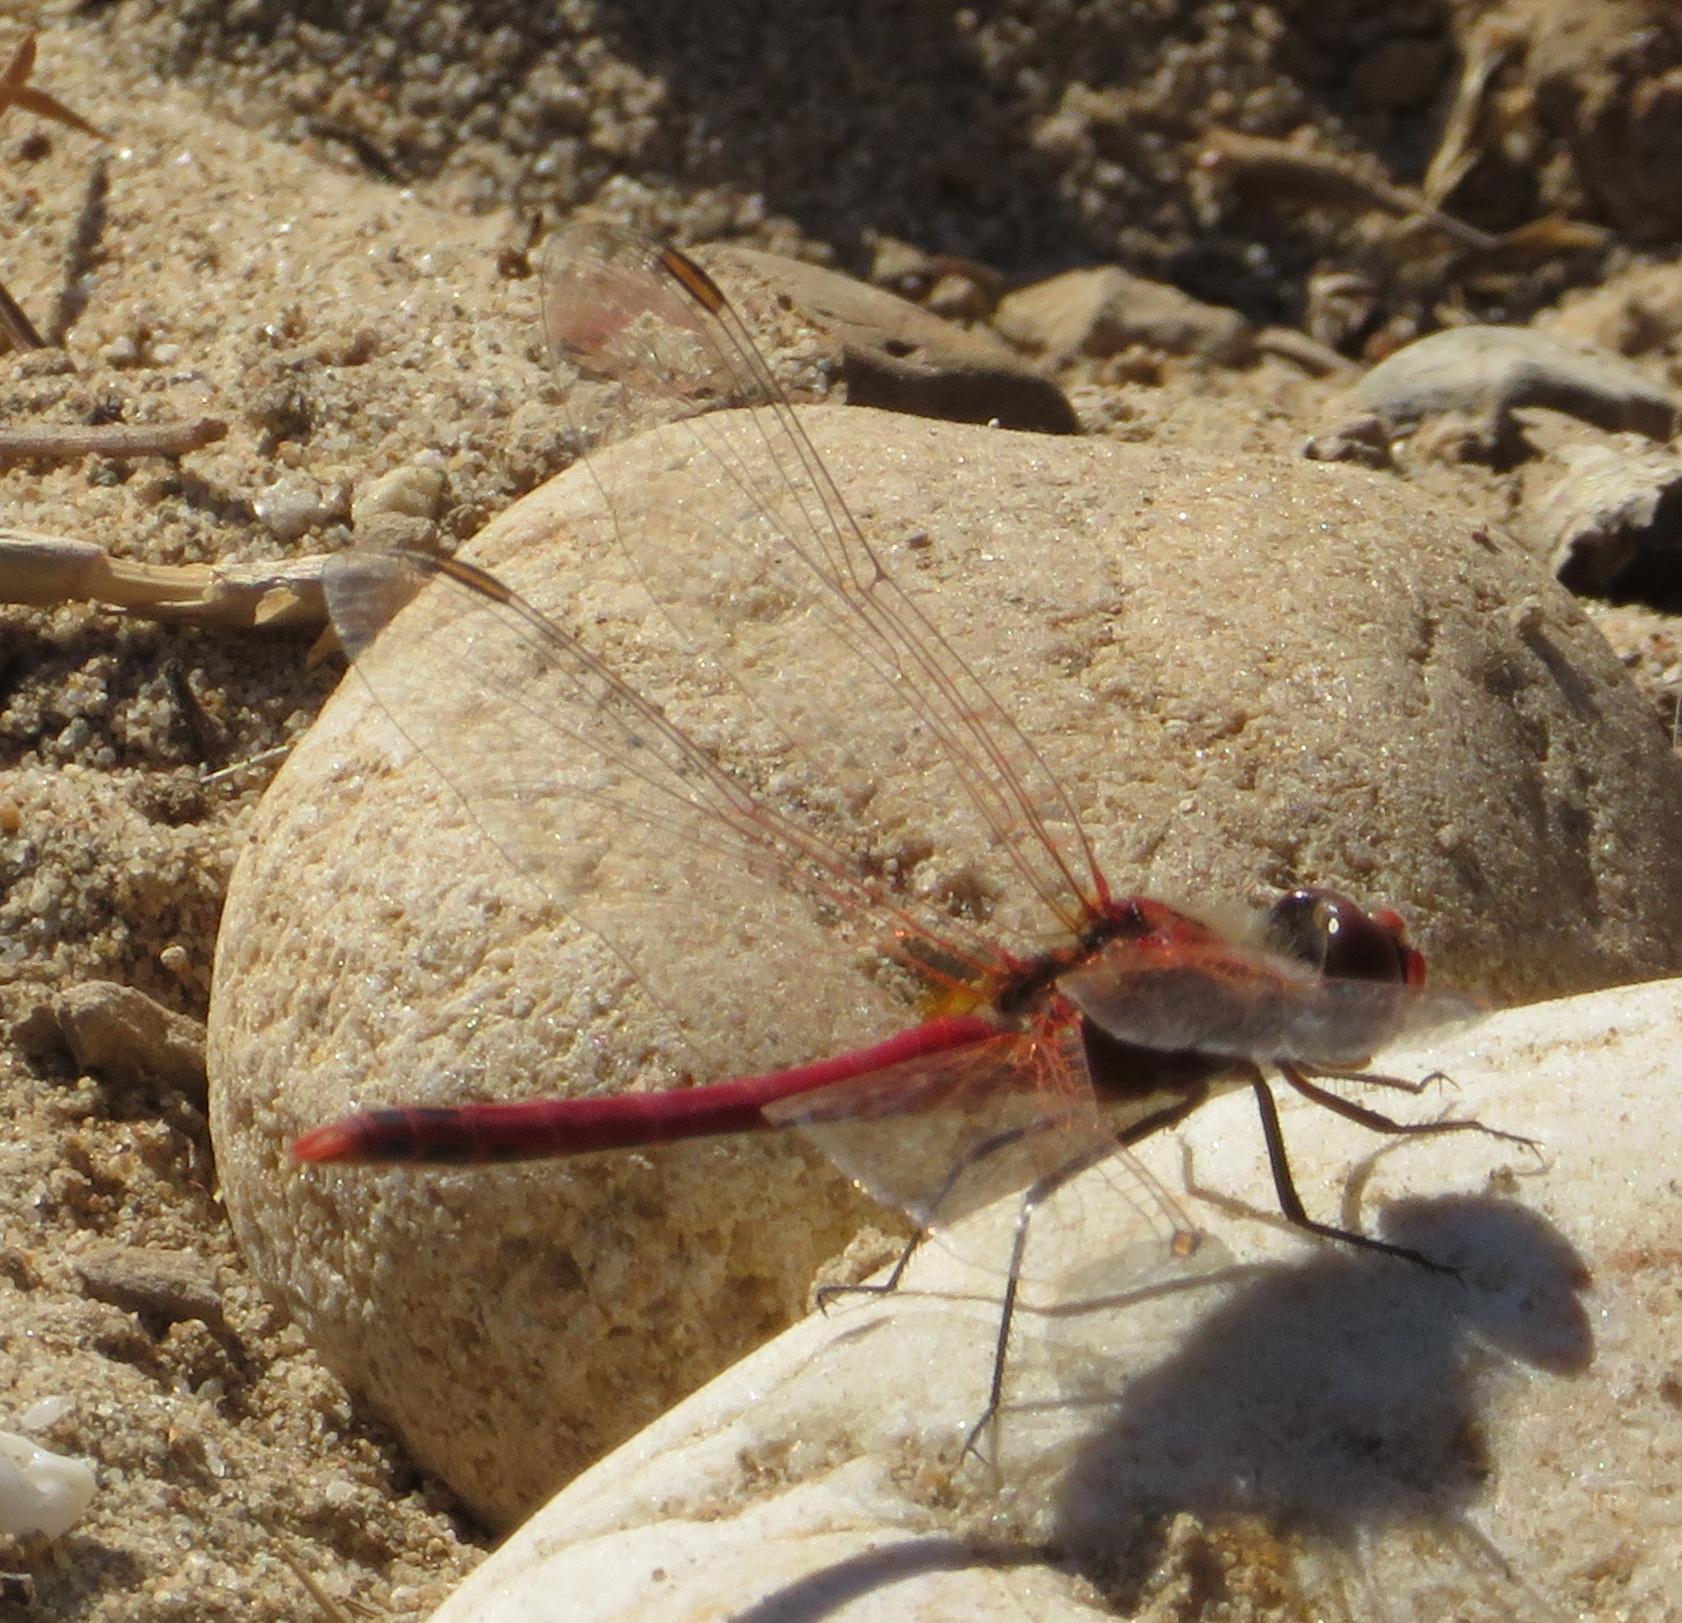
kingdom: Animalia
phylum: Arthropoda
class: Insecta
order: Odonata
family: Libellulidae
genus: Sympetrum
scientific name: Sympetrum fonscolombii
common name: Red-veined darter
